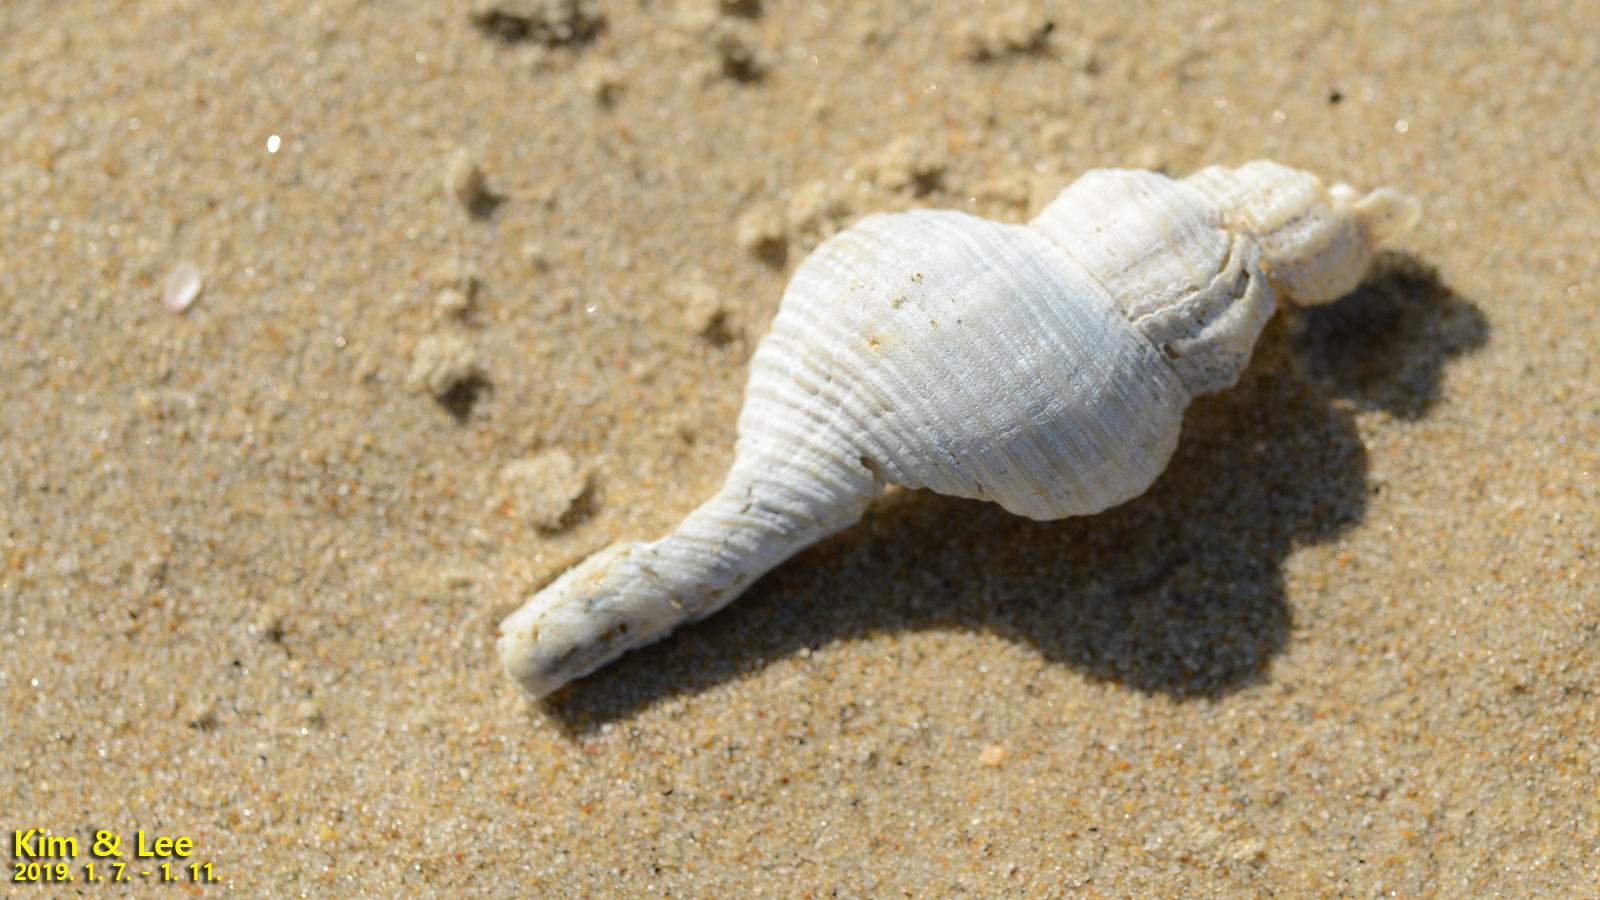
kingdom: Animalia
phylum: Mollusca
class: Gastropoda
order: Neogastropoda
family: Fasciolariidae
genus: Fusinus
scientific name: Fusinus ferrugineus
